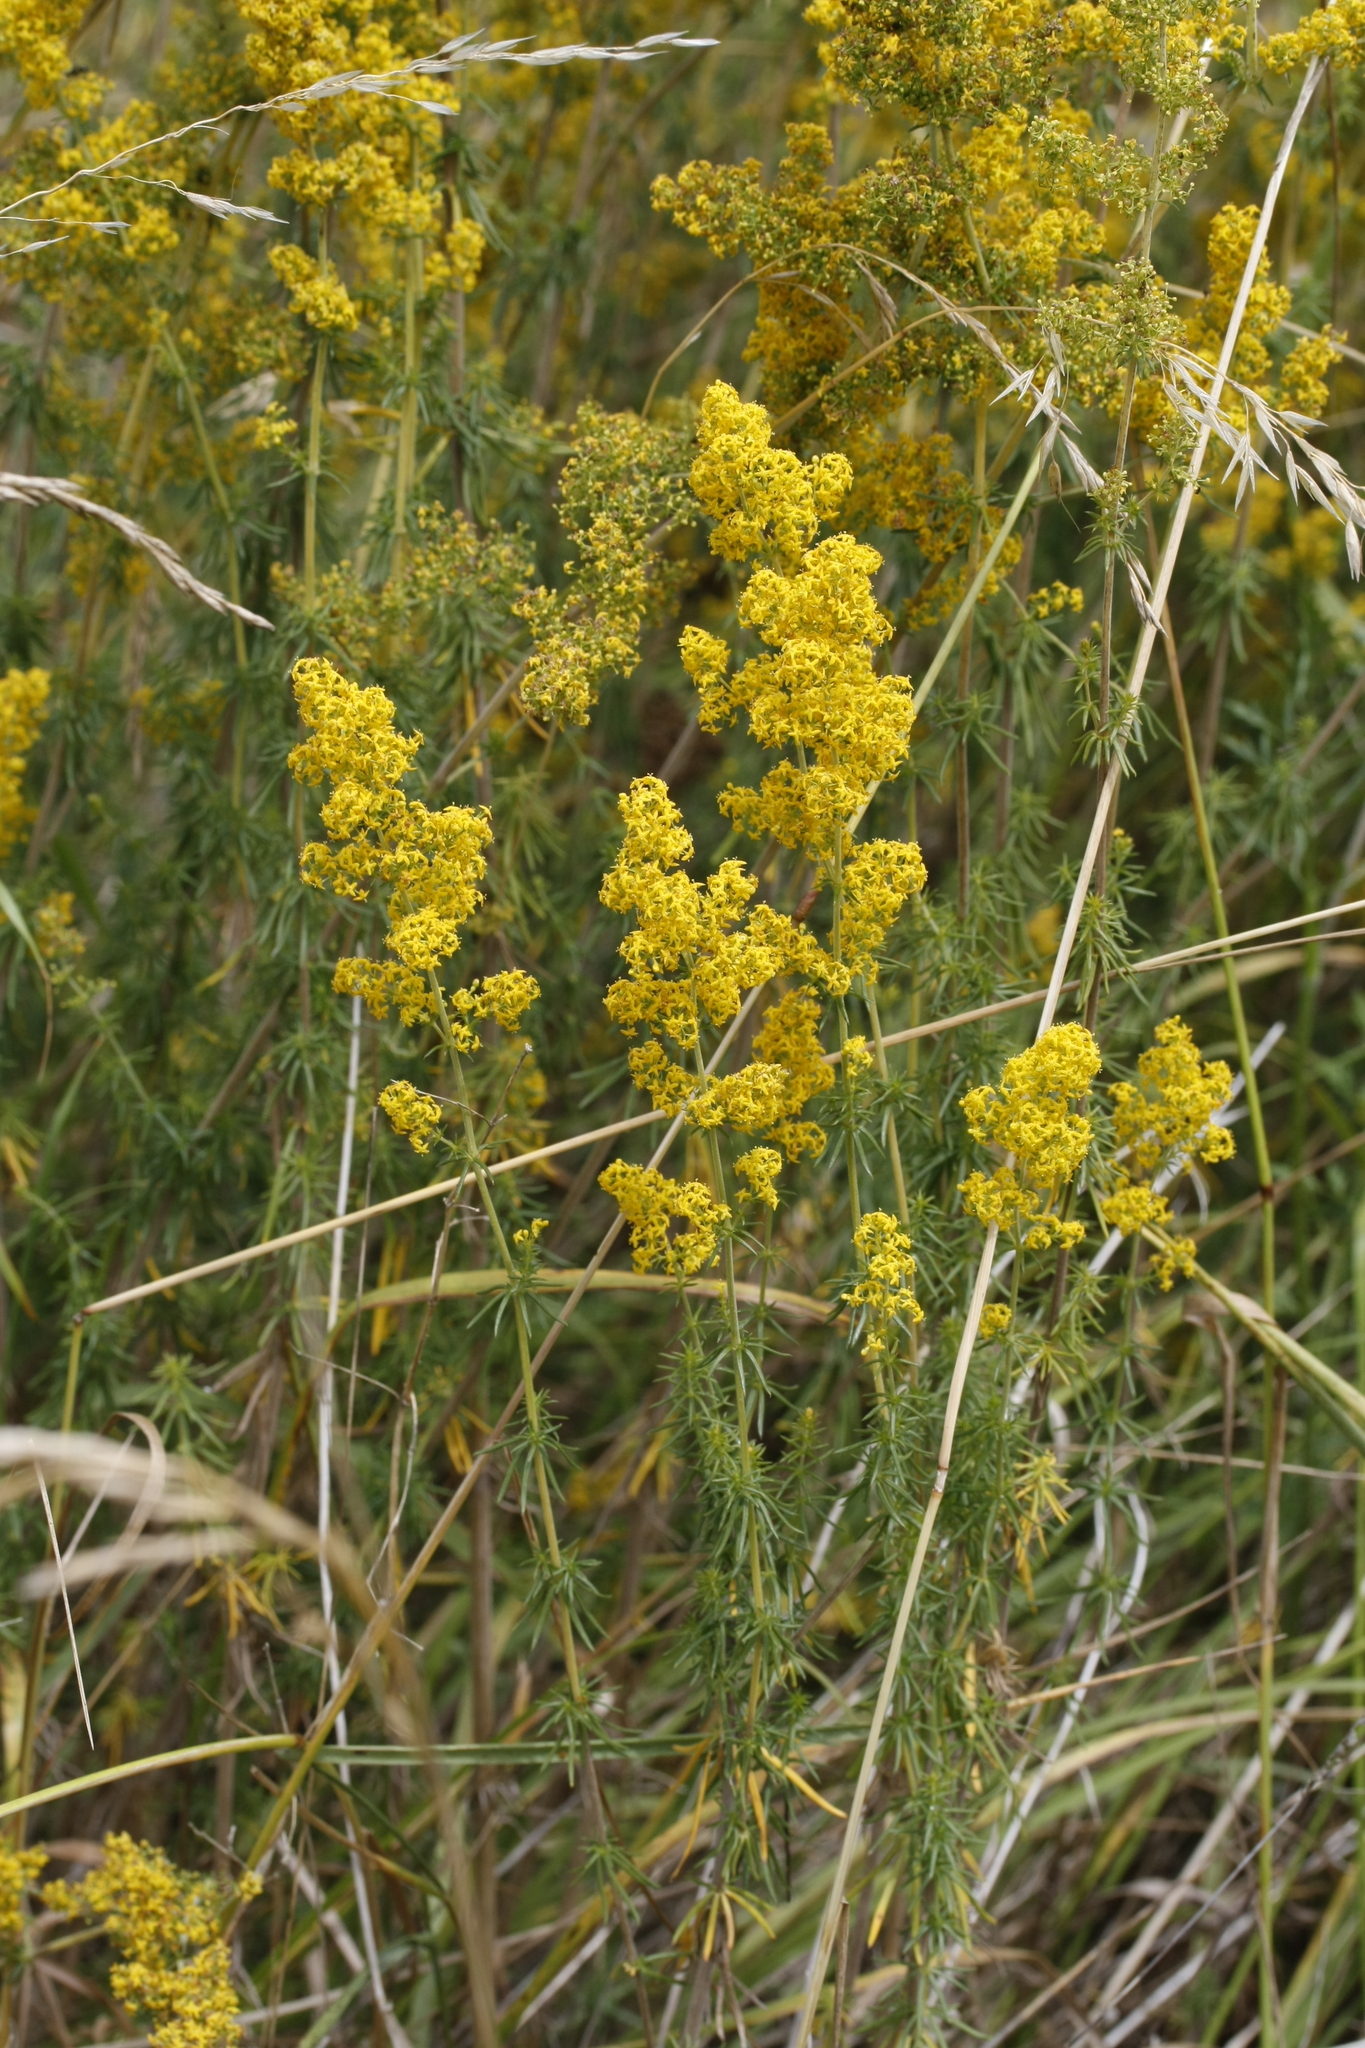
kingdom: Plantae
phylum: Tracheophyta
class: Magnoliopsida
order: Gentianales
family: Rubiaceae
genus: Galium
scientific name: Galium verum
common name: Lady's bedstraw
